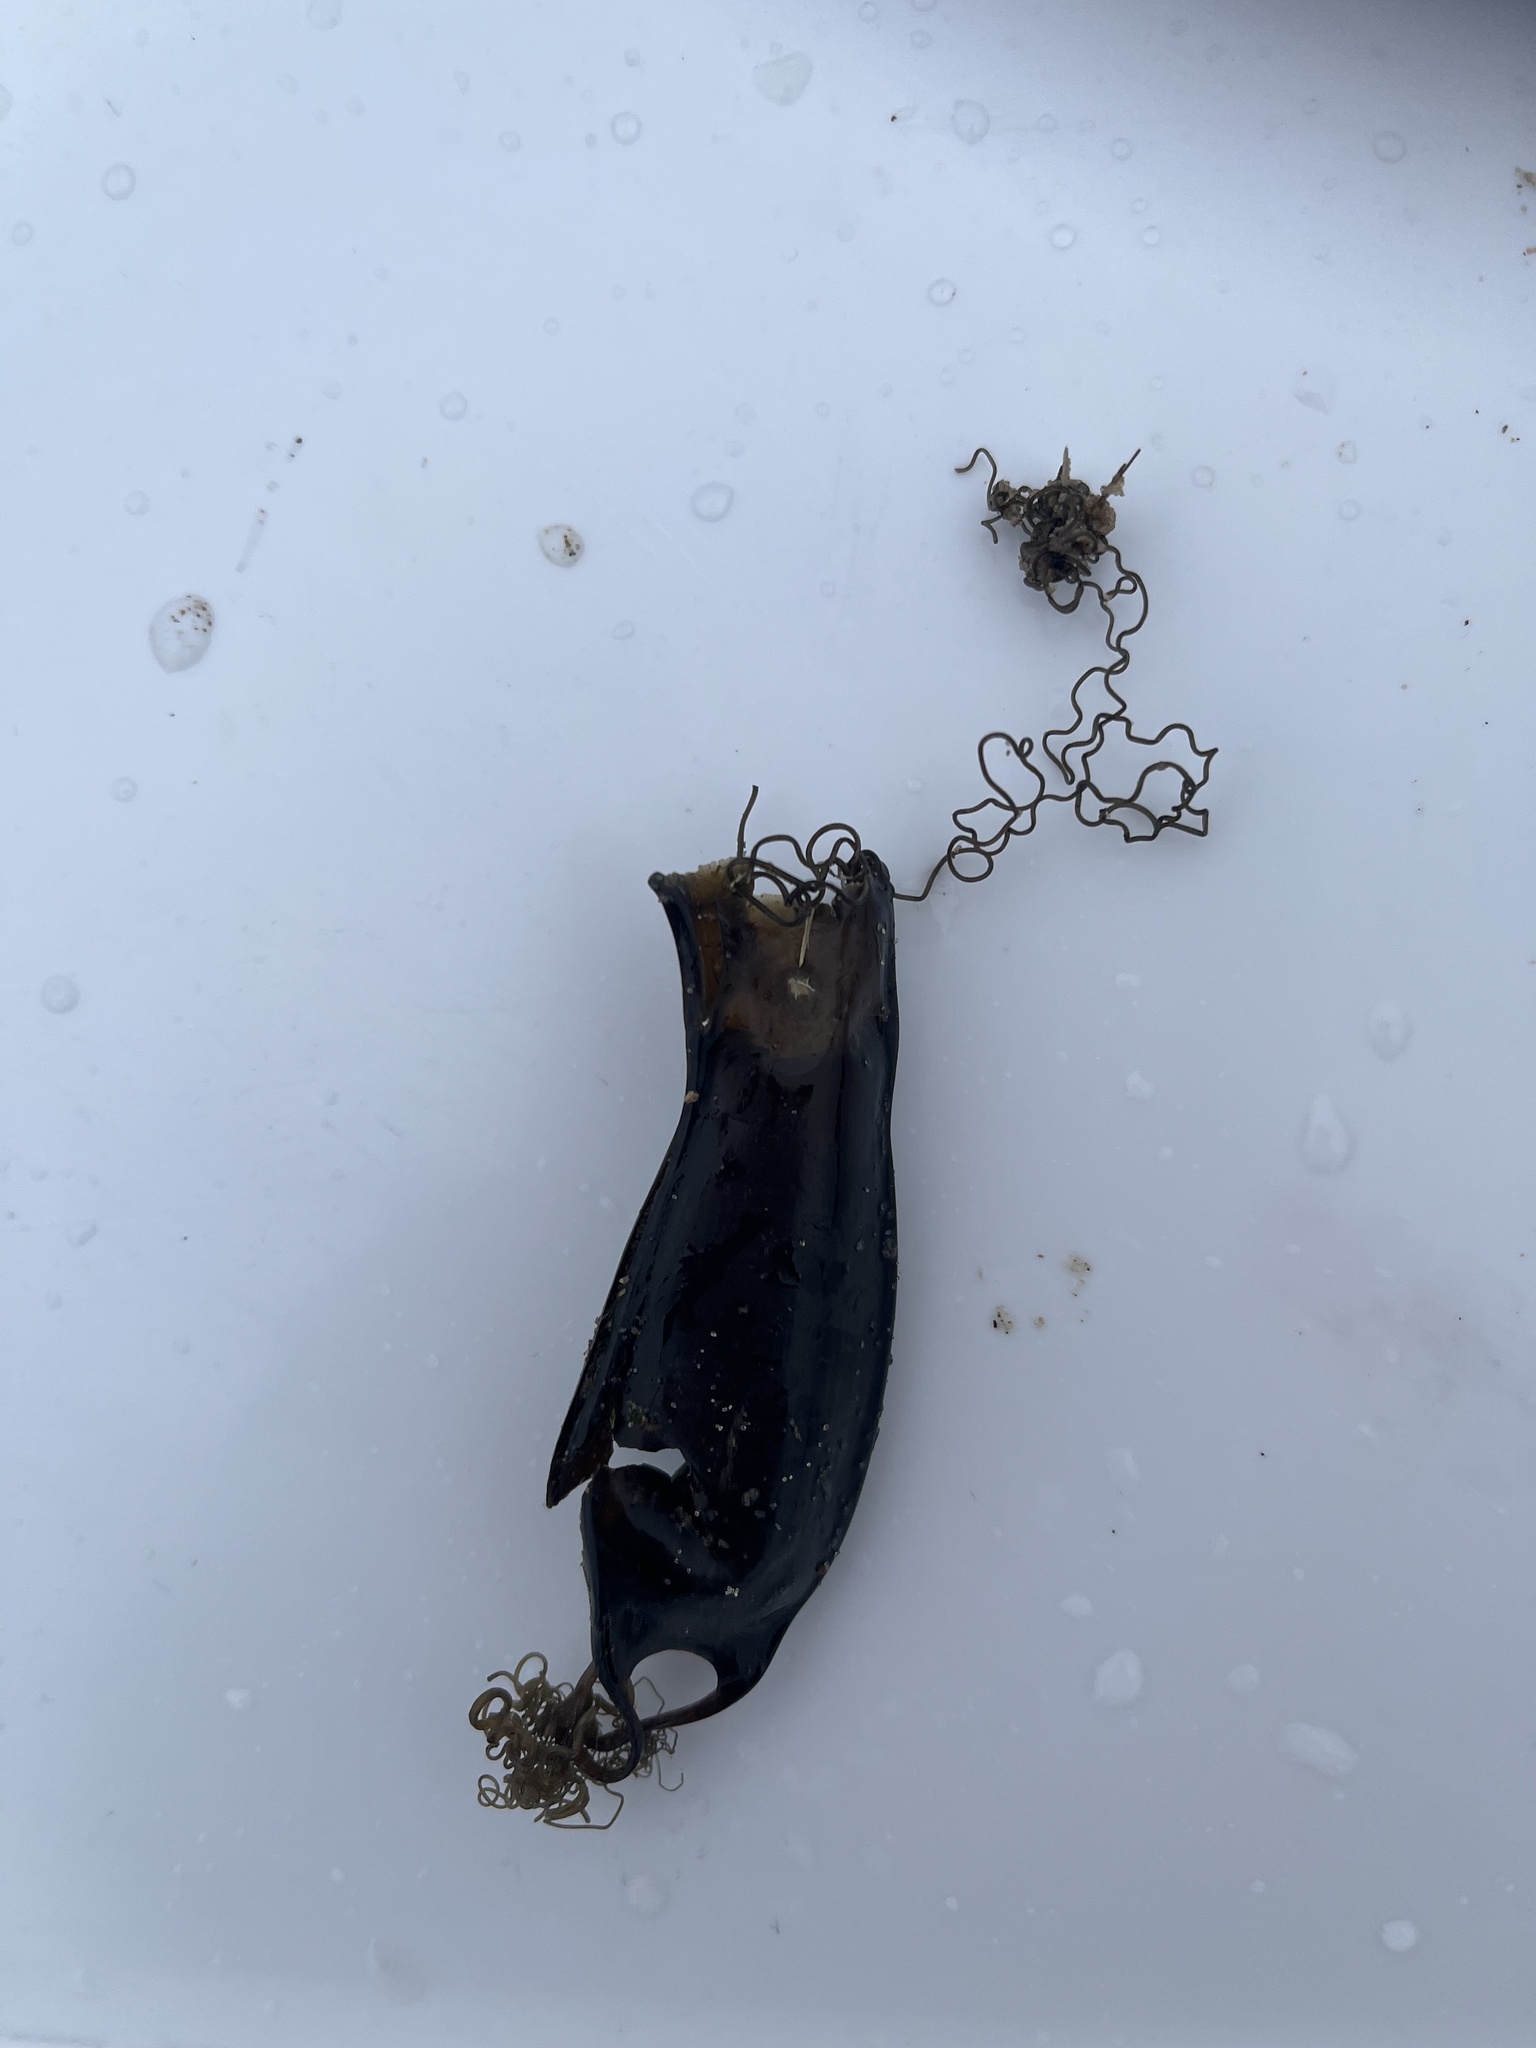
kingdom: Animalia
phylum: Chordata
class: Elasmobranchii
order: Carcharhiniformes
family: Scyliorhinidae
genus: Scyliorhinus
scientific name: Scyliorhinus canicula
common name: Lesser spotted dogfish
